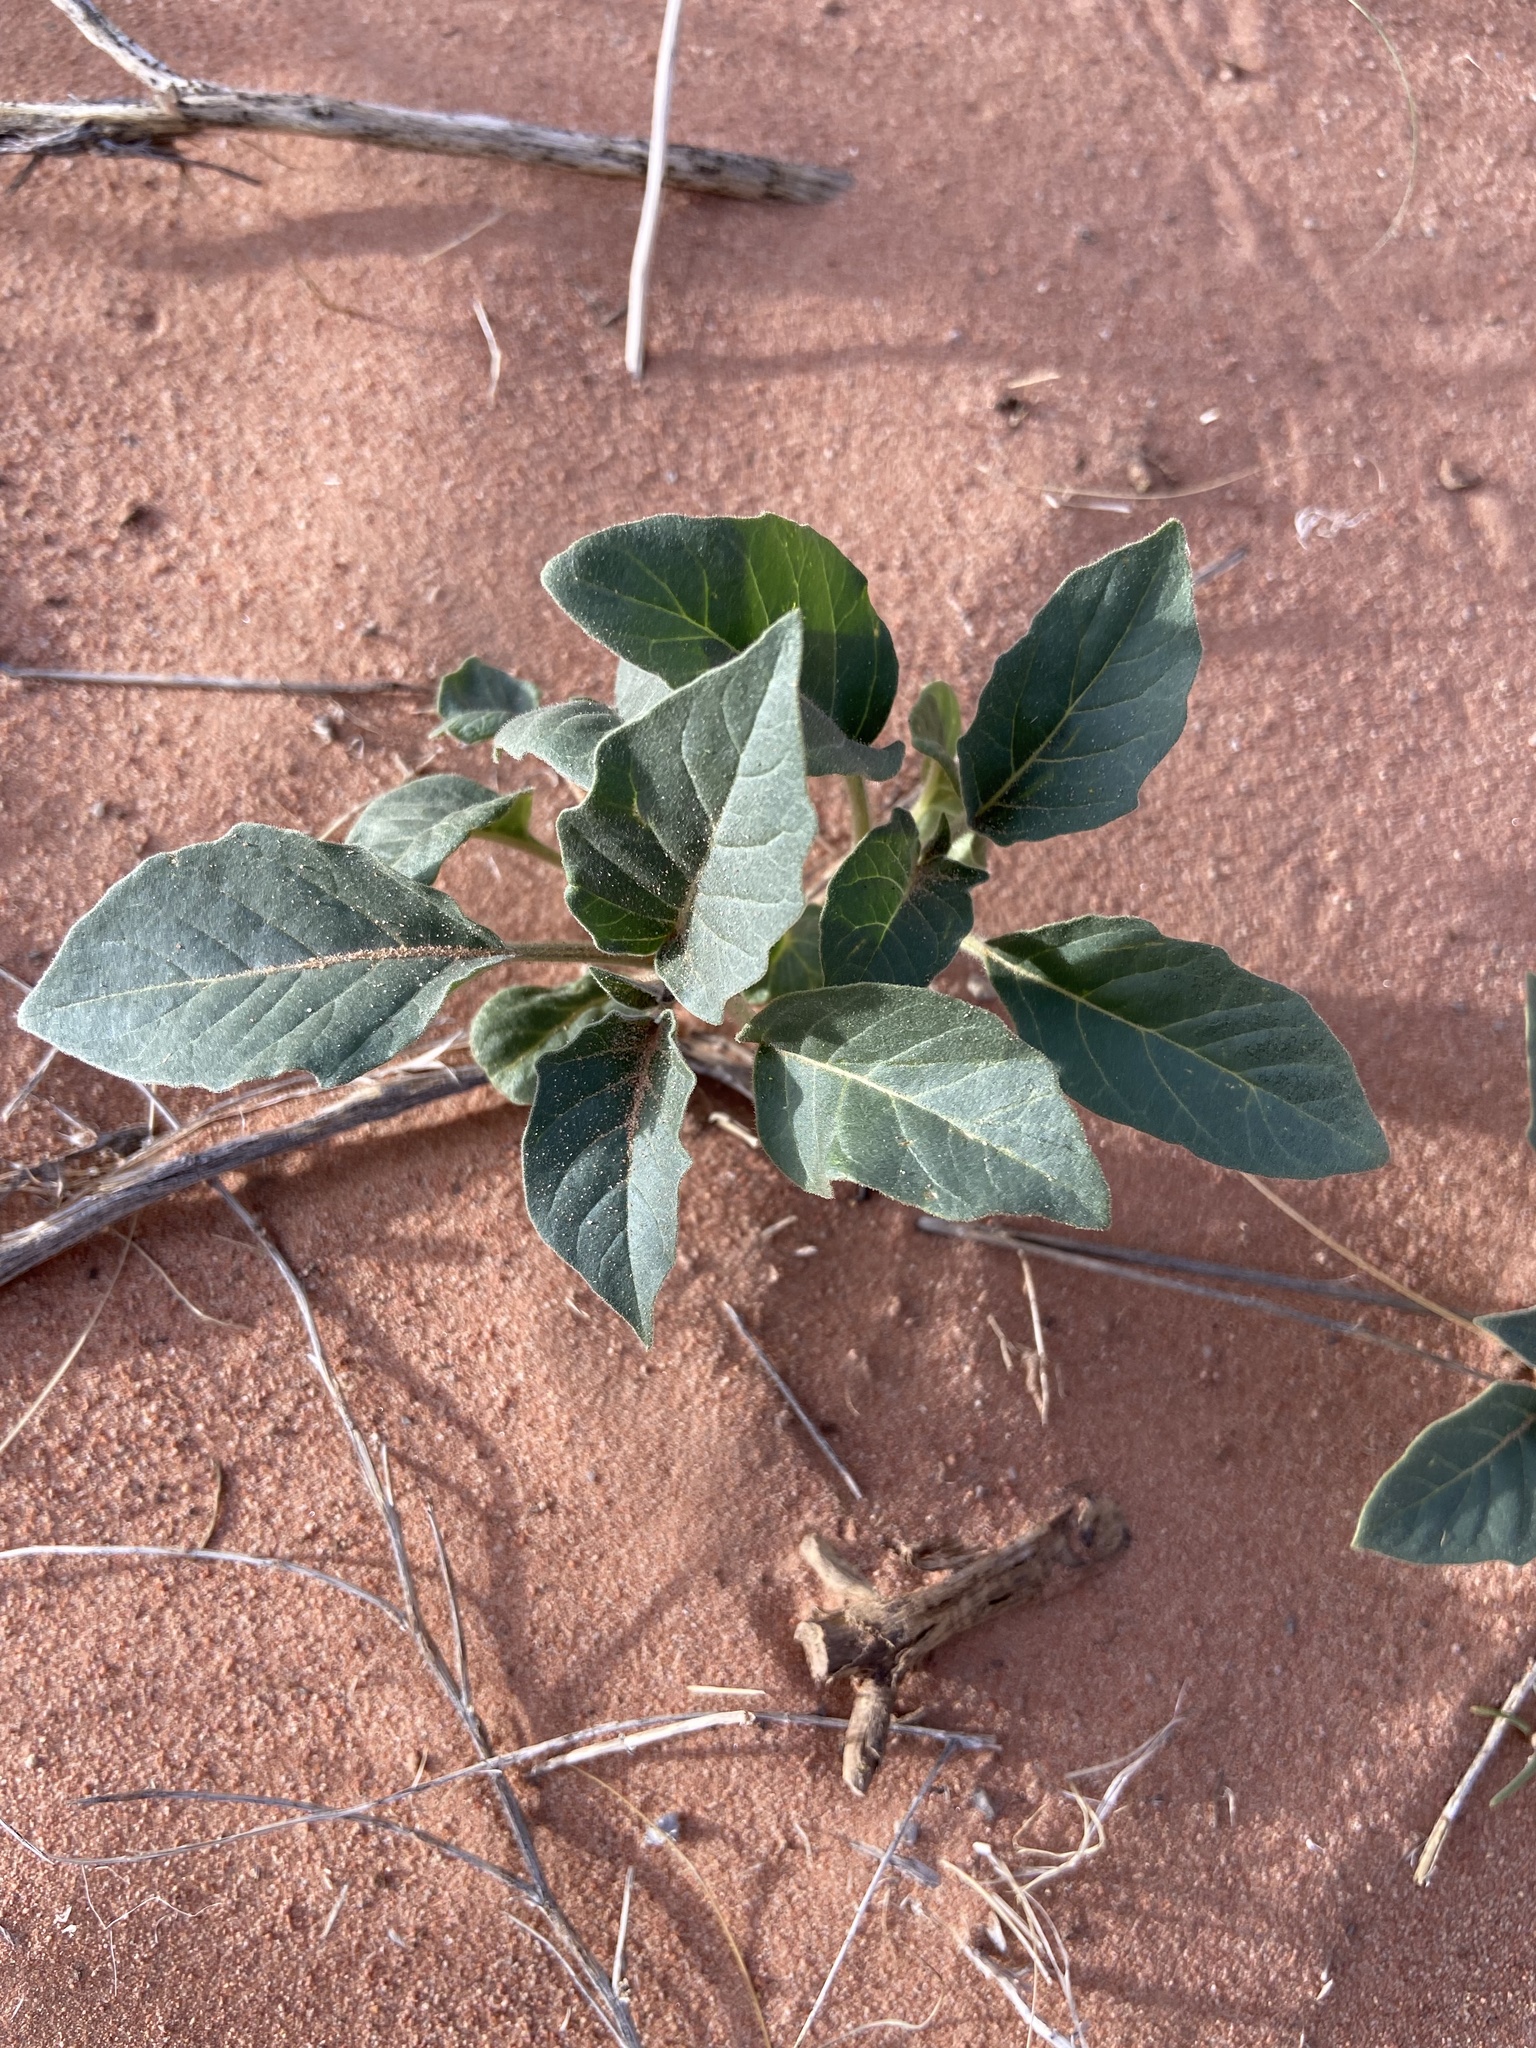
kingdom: Plantae
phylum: Tracheophyta
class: Magnoliopsida
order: Solanales
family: Solanaceae
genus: Datura
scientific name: Datura wrightii
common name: Sacred thorn-apple
